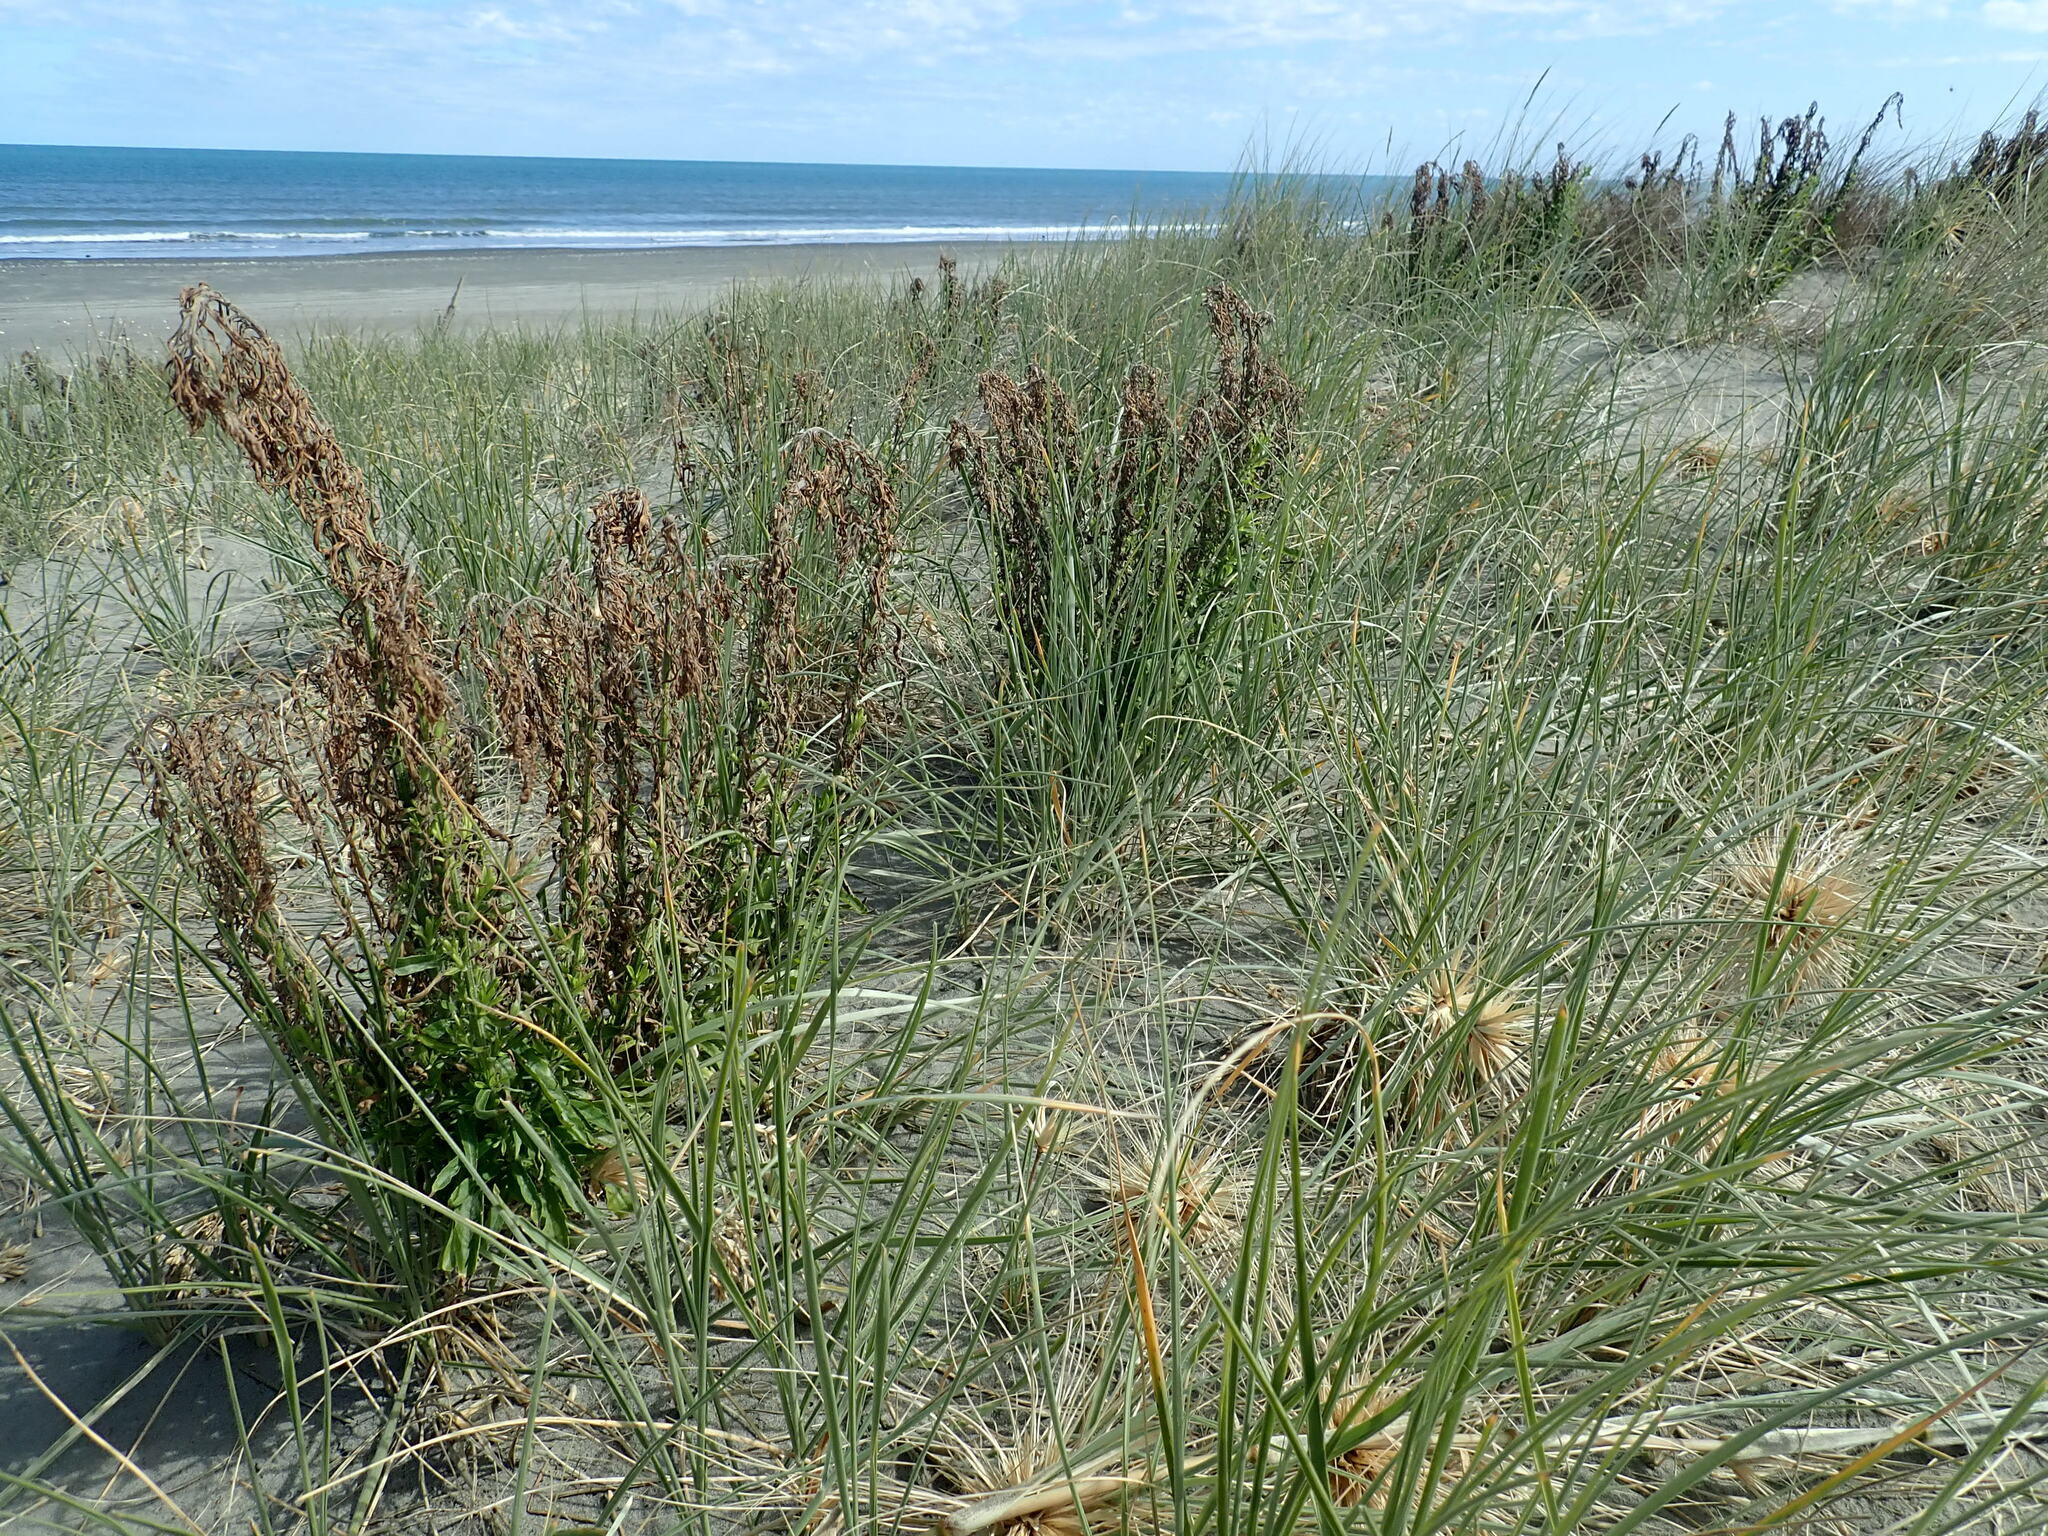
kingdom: Plantae
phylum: Tracheophyta
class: Magnoliopsida
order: Asterales
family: Asteraceae
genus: Erigeron
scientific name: Erigeron sumatrensis
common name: Daisy
